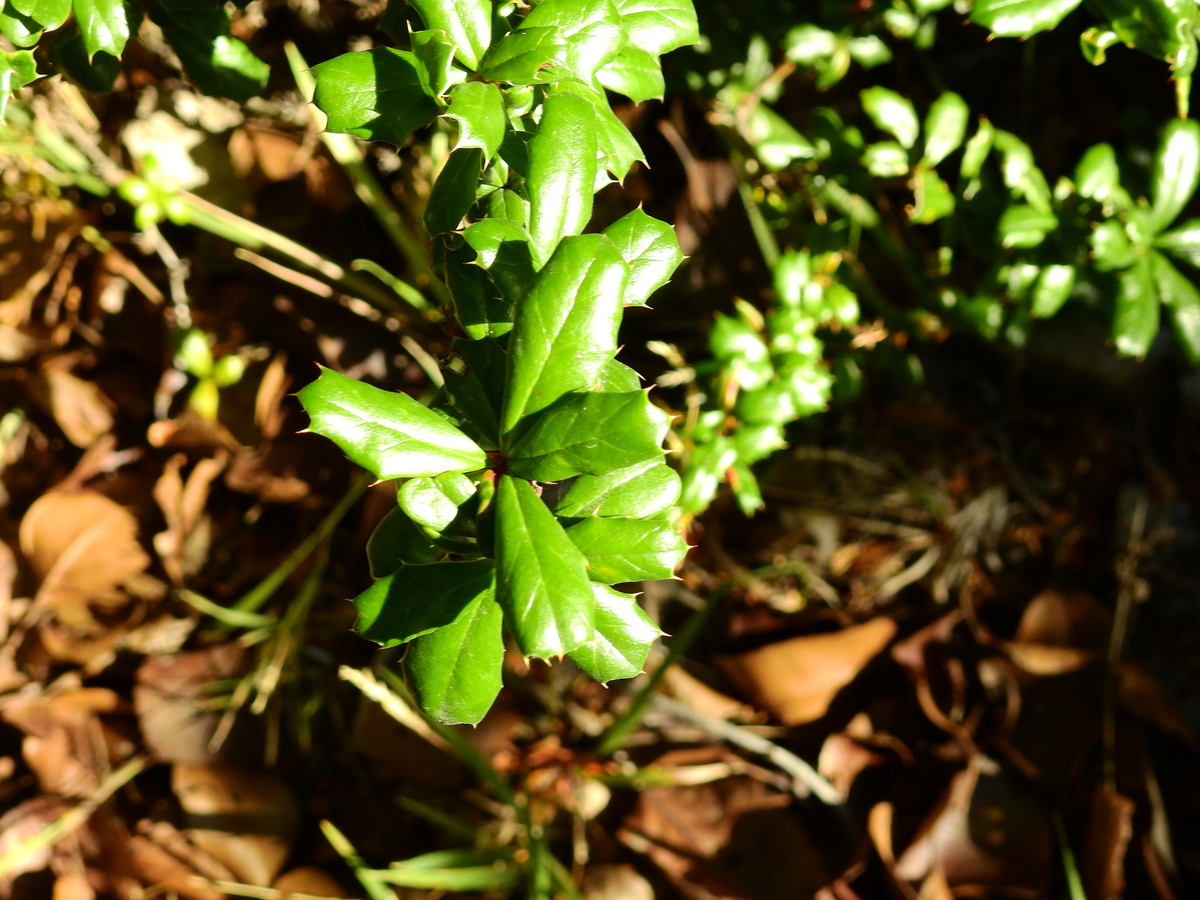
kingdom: Plantae
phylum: Tracheophyta
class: Magnoliopsida
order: Ranunculales
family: Berberidaceae
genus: Berberis
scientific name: Berberis darwinii
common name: Darwin's barberry
